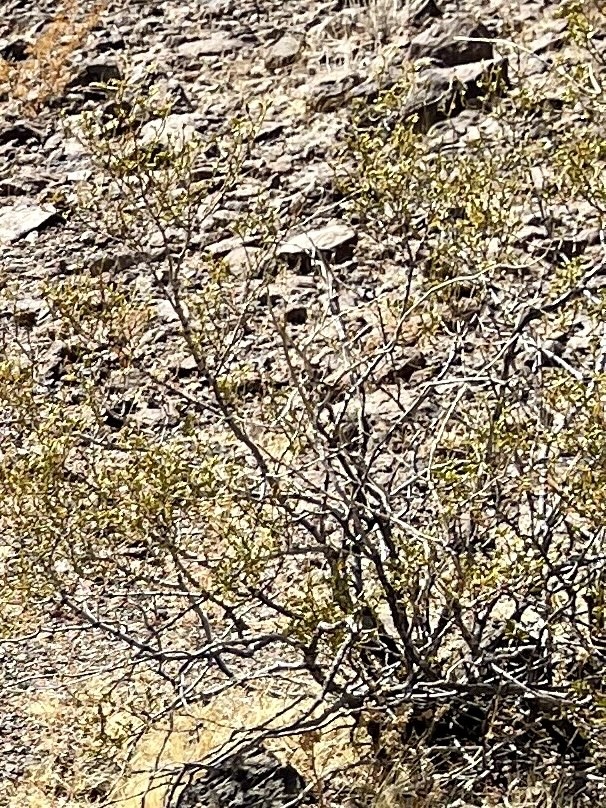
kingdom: Plantae
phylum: Tracheophyta
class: Magnoliopsida
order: Zygophyllales
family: Zygophyllaceae
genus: Larrea
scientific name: Larrea tridentata
